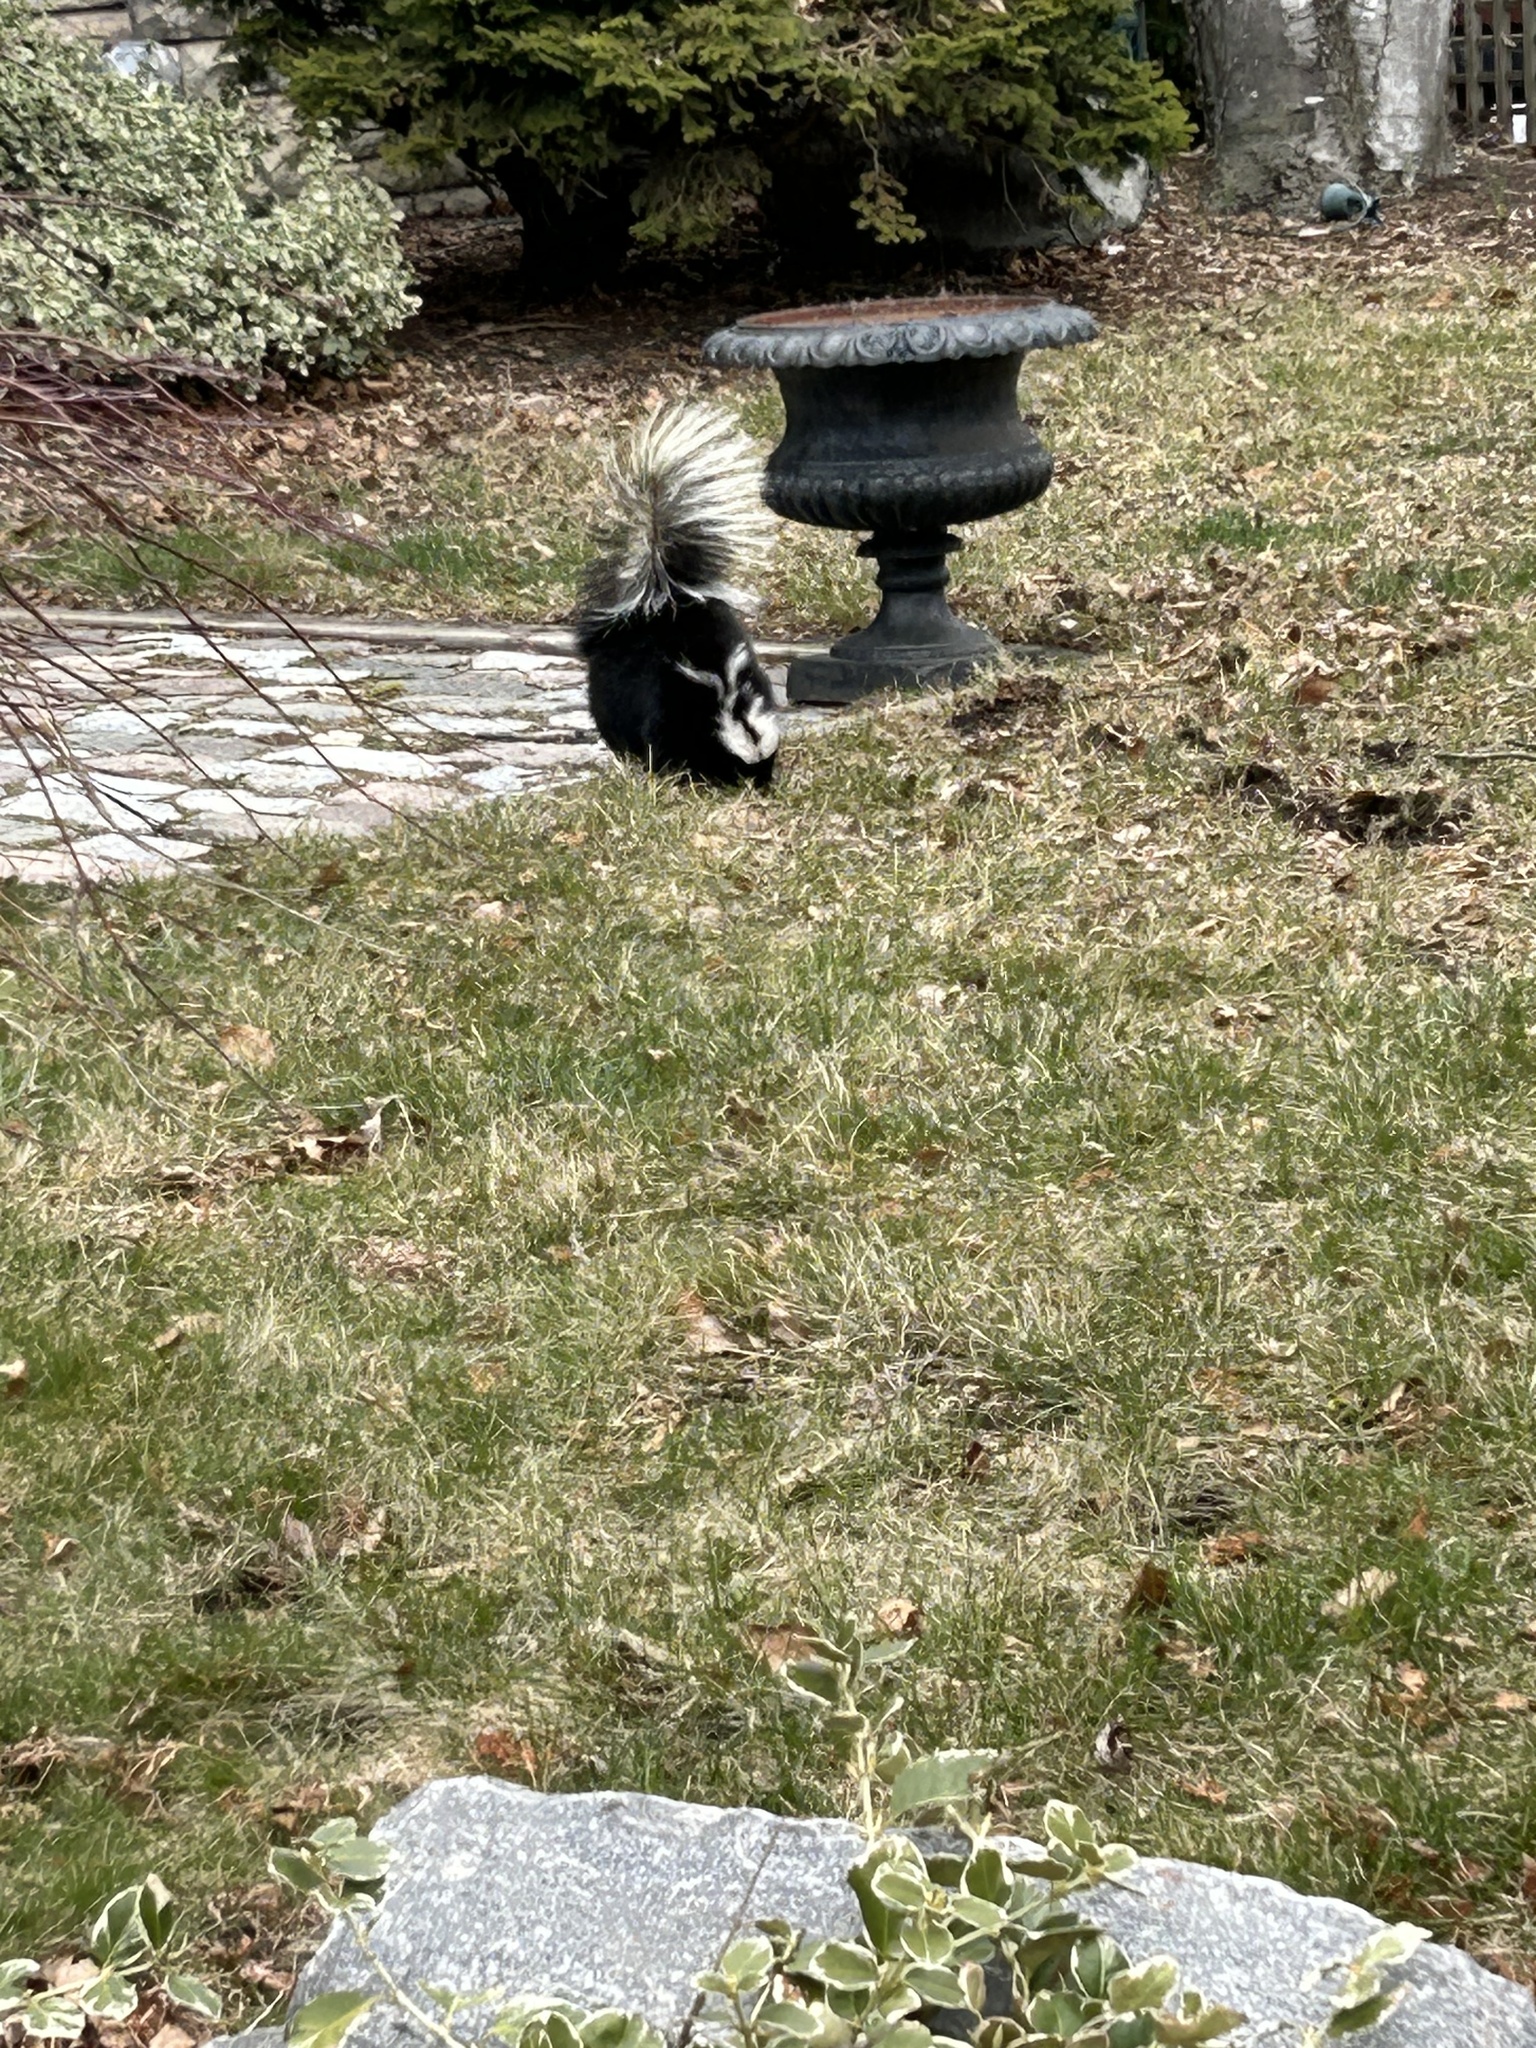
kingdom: Animalia
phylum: Chordata
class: Mammalia
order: Carnivora
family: Mephitidae
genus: Mephitis
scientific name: Mephitis mephitis
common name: Striped skunk
